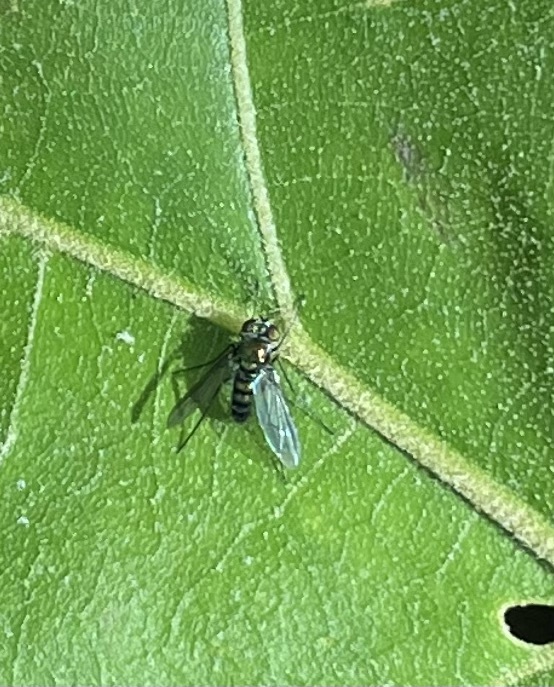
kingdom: Animalia
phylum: Arthropoda
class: Insecta
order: Diptera
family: Dolichopodidae
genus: Condylostylus
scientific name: Condylostylus patibulatus
